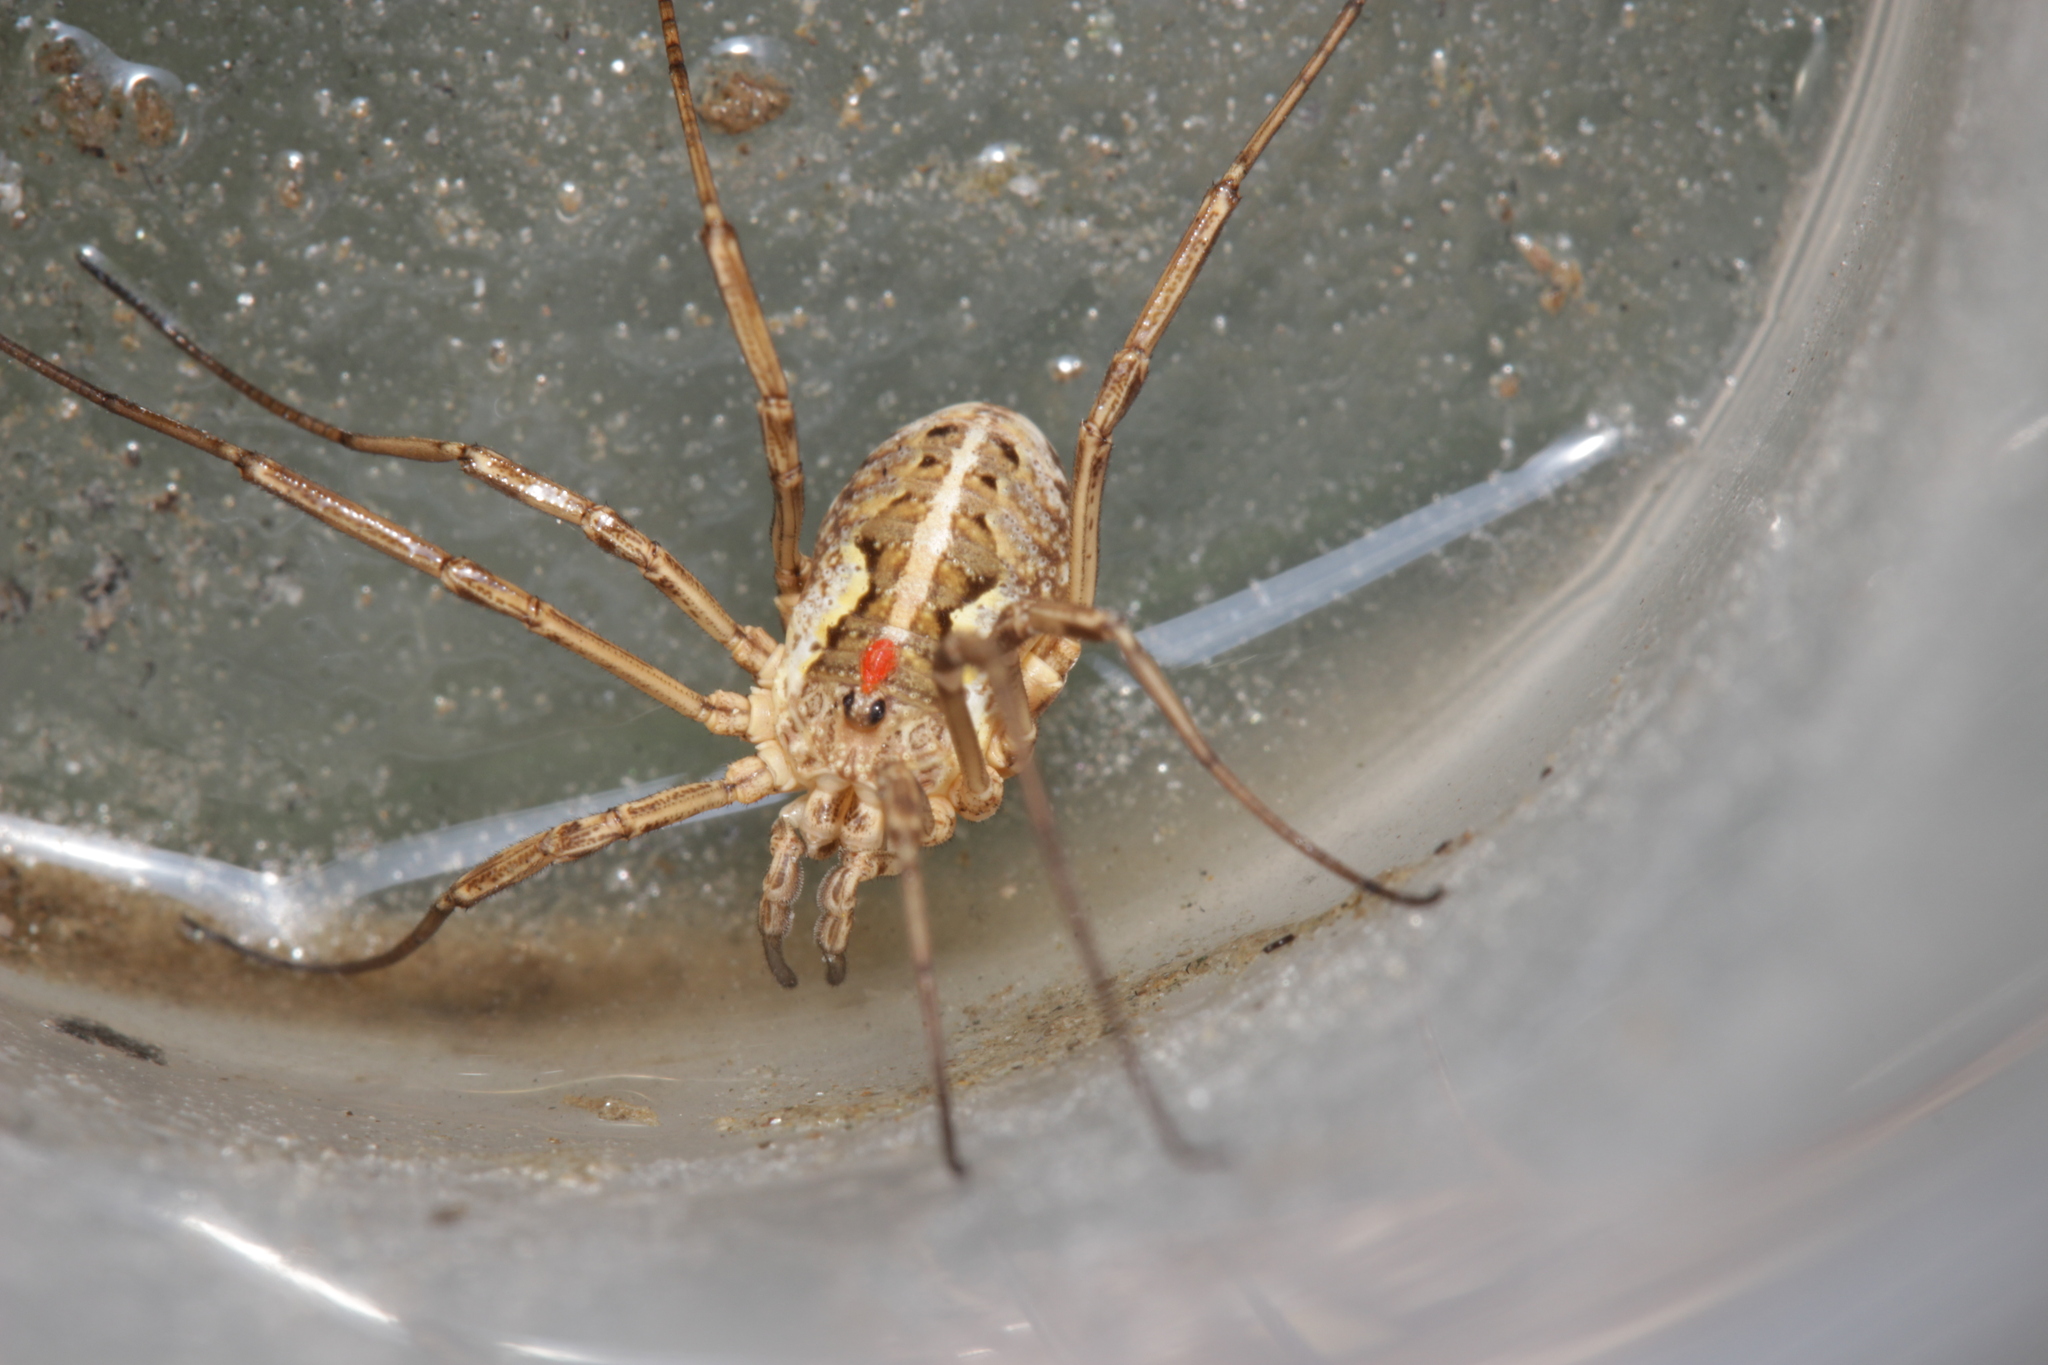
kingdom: Animalia
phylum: Arthropoda
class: Arachnida
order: Opiliones
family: Phalangiidae
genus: Mitopus
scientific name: Mitopus morio
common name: Saddleback harvestman
